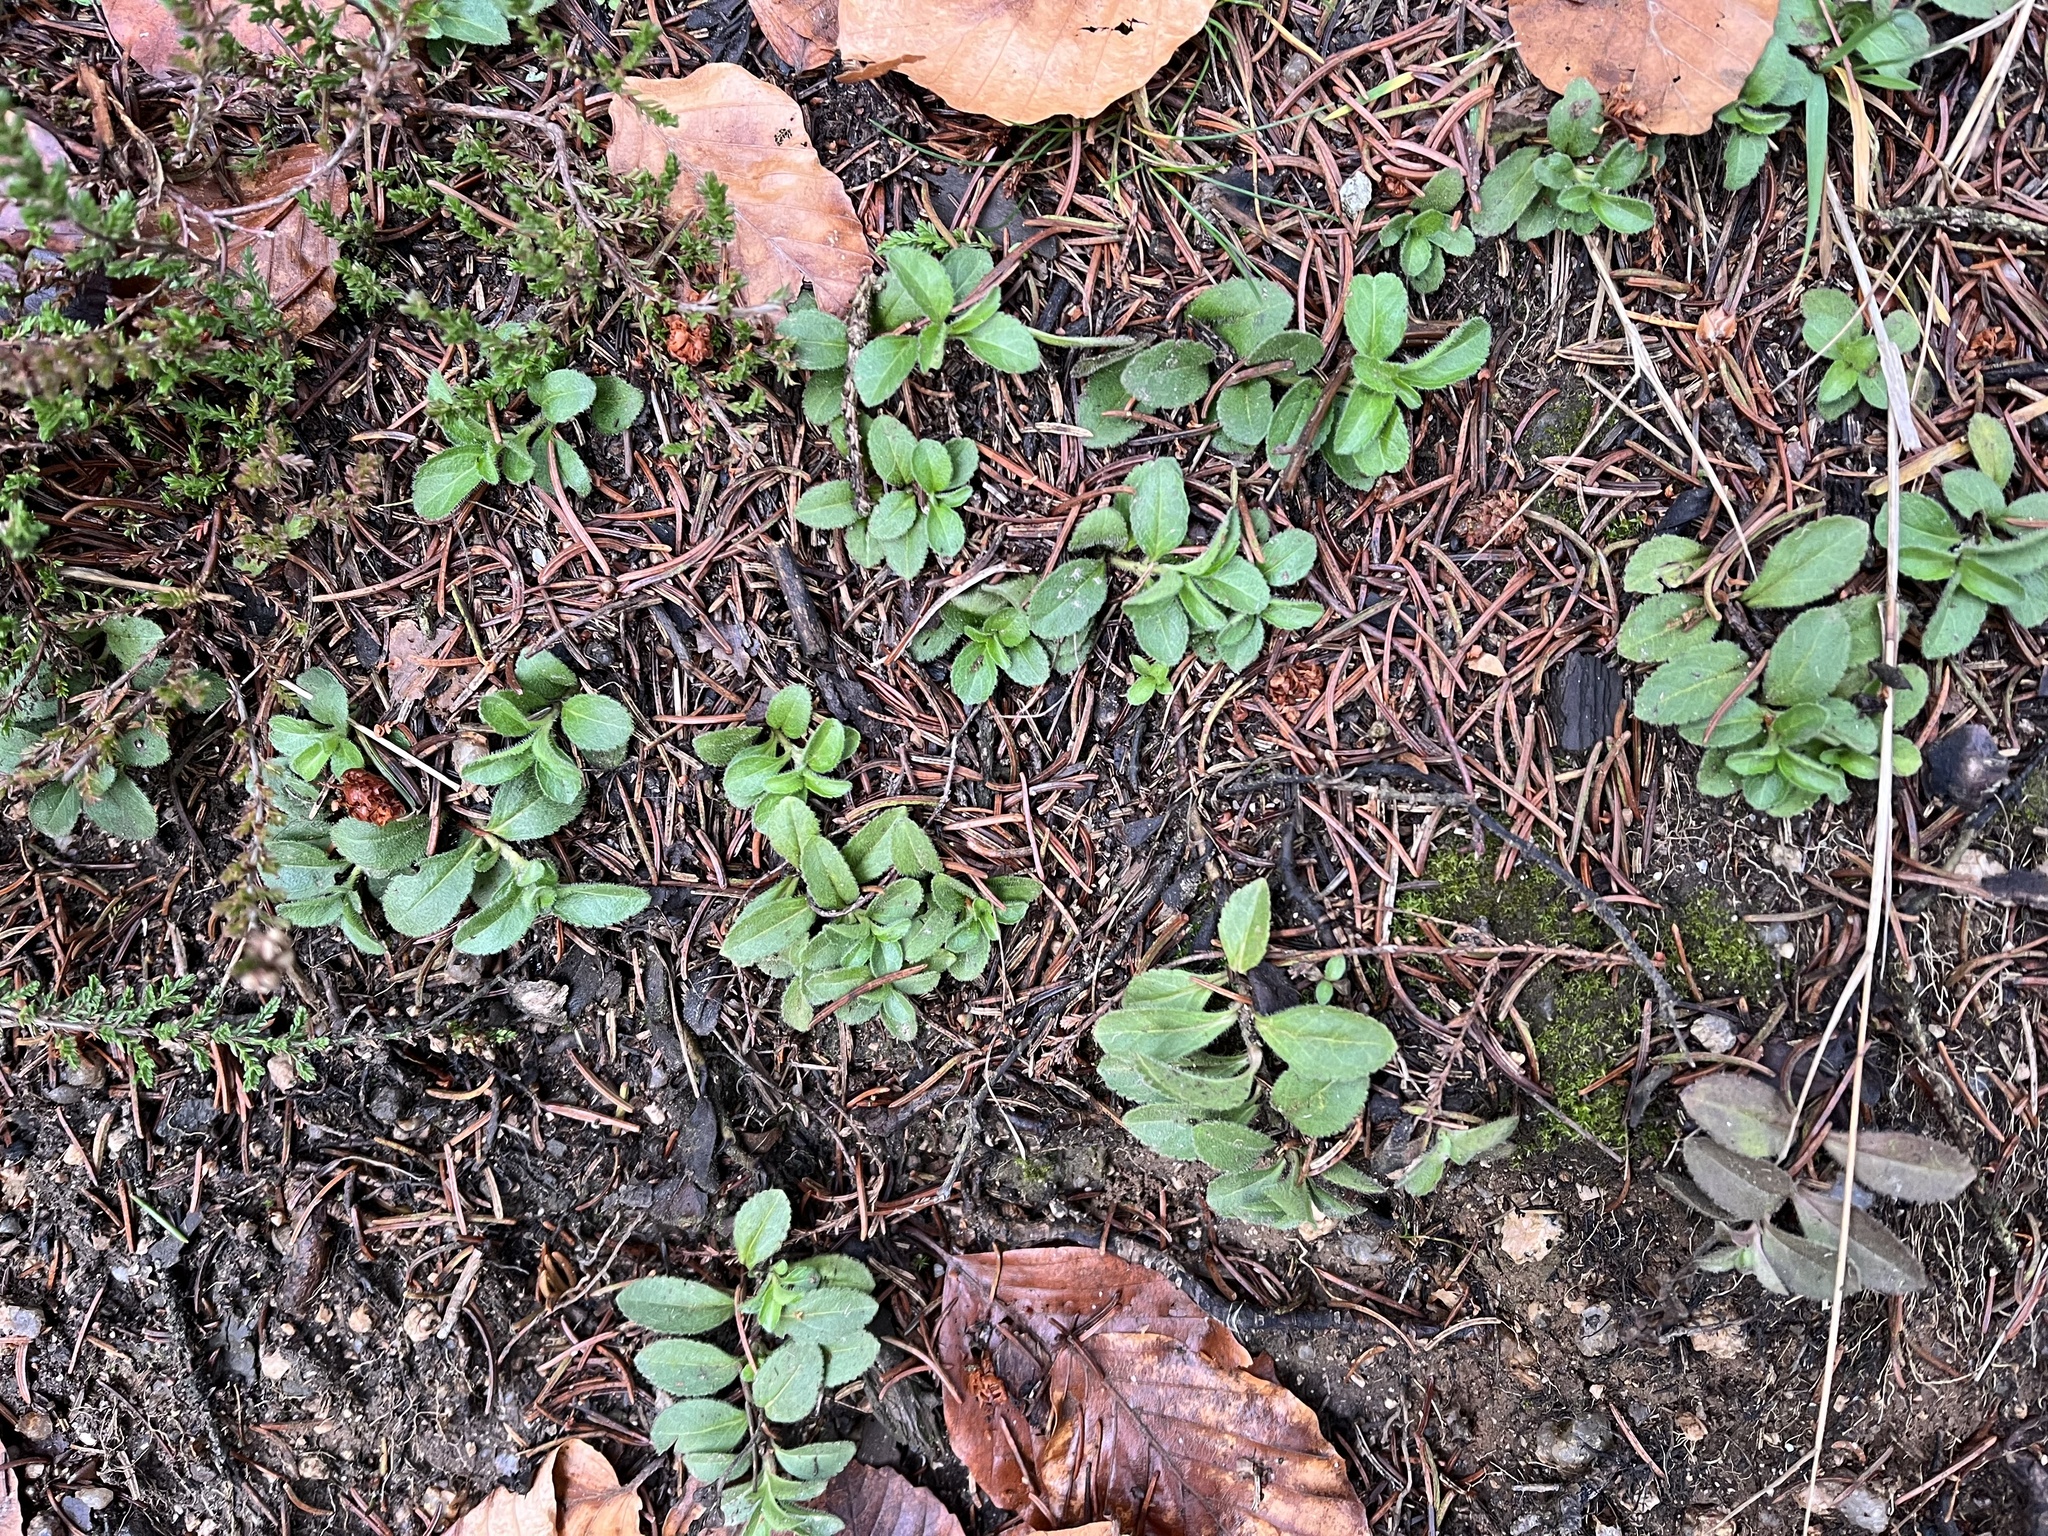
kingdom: Plantae
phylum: Tracheophyta
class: Magnoliopsida
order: Lamiales
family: Plantaginaceae
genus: Veronica
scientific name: Veronica officinalis
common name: Common speedwell
